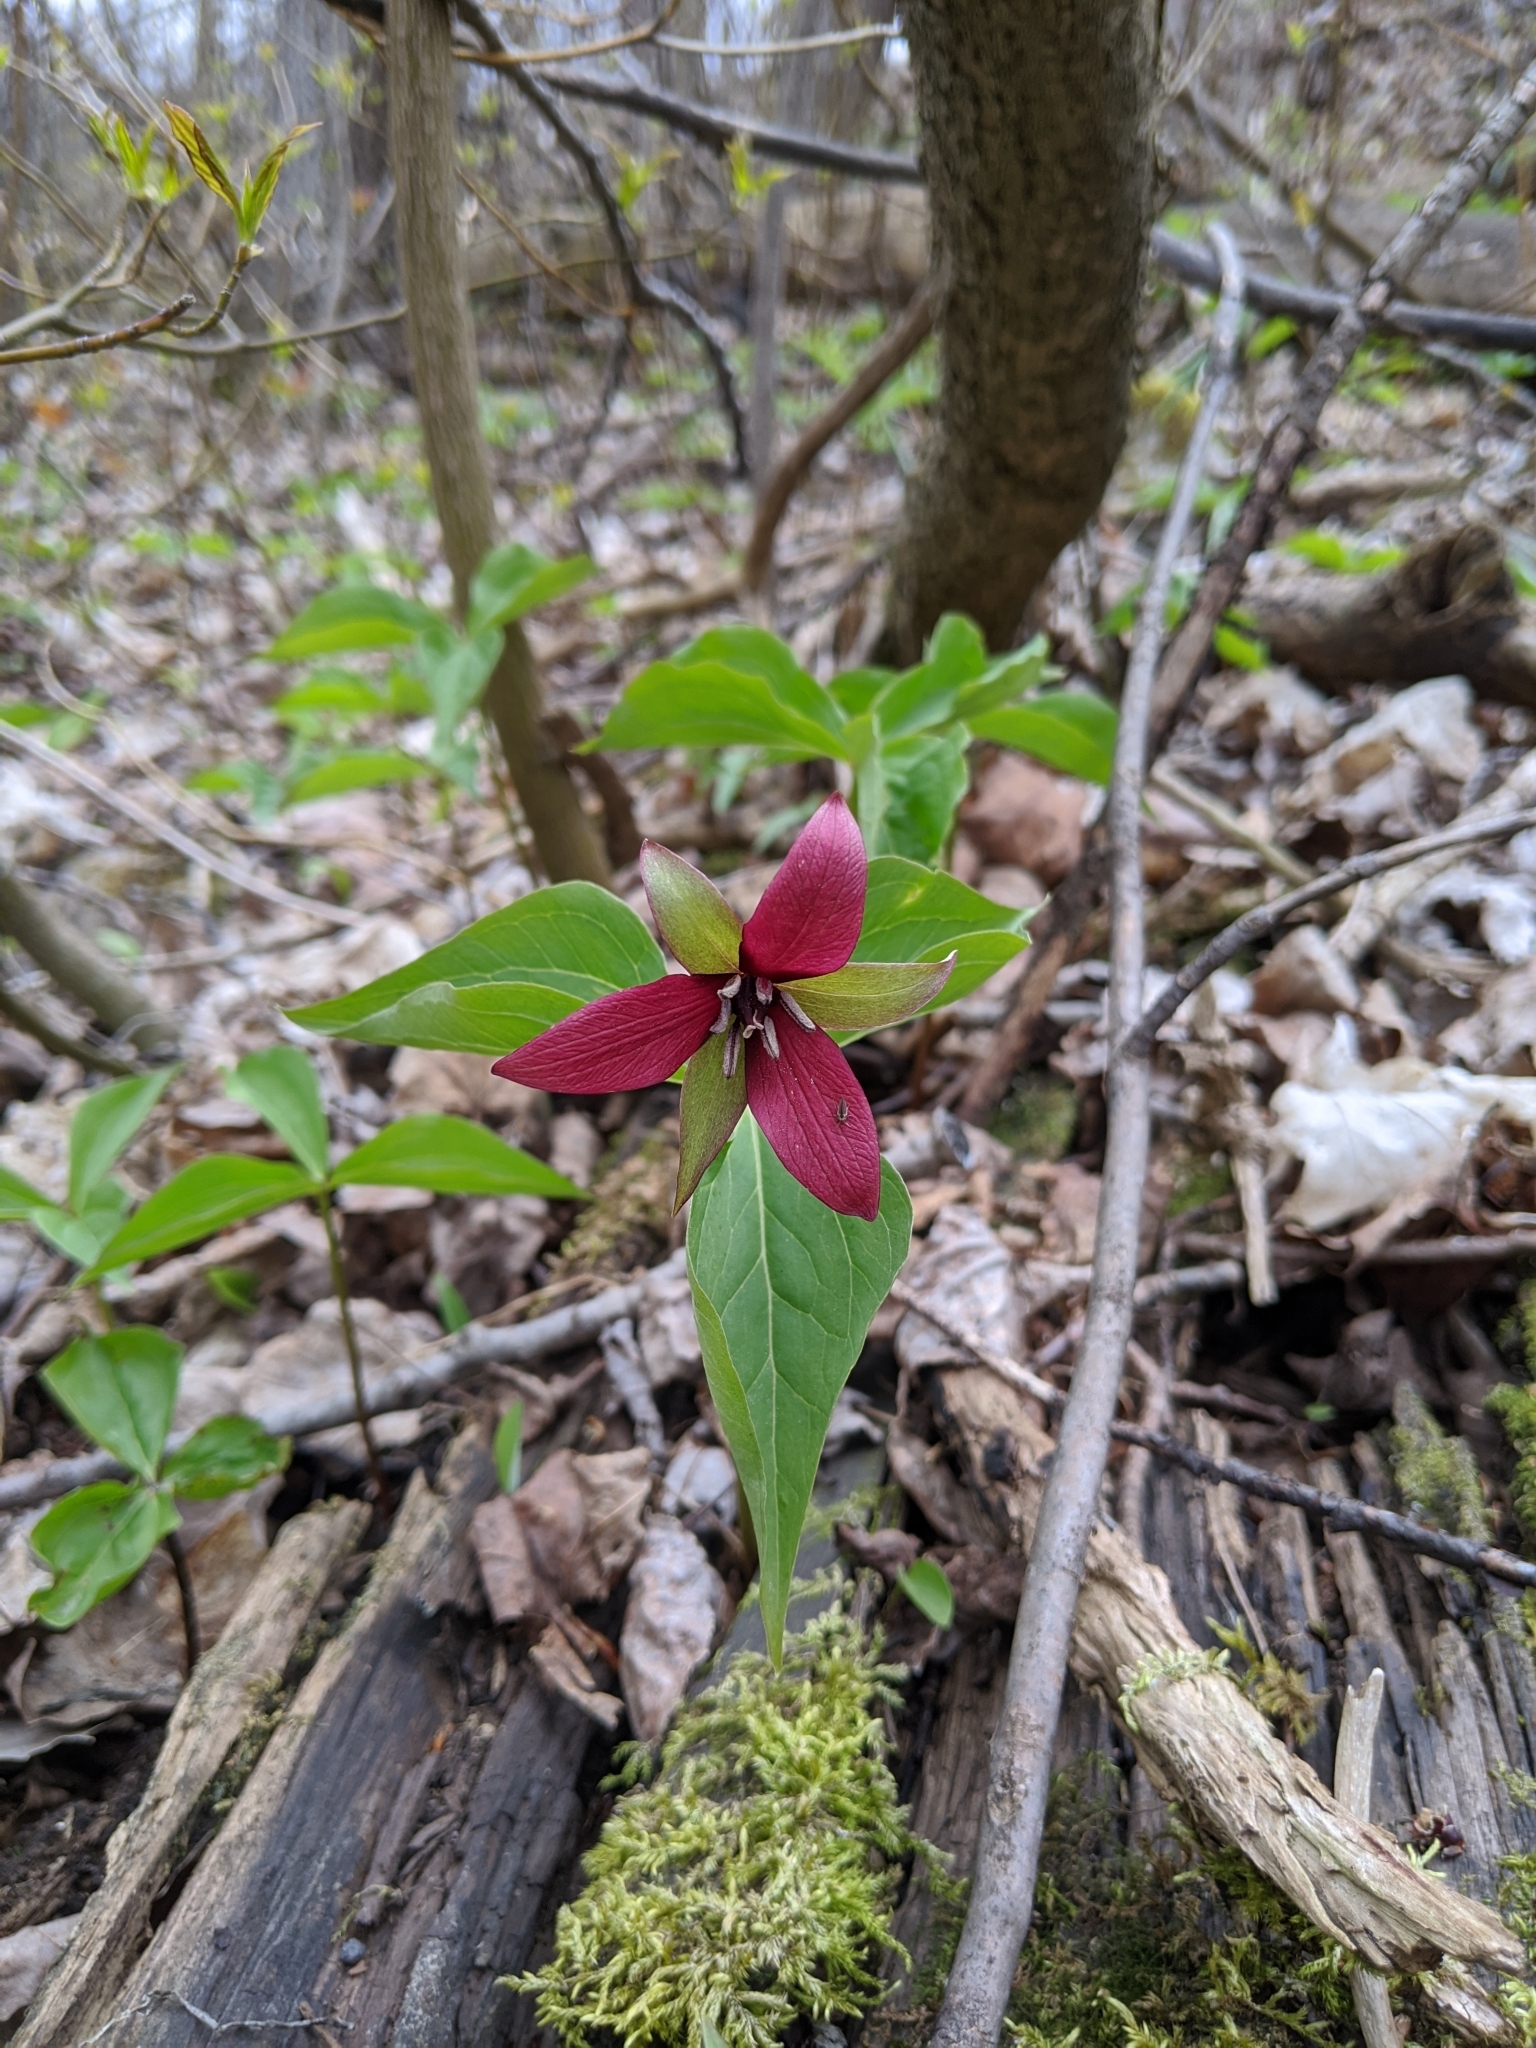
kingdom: Plantae
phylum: Tracheophyta
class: Liliopsida
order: Liliales
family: Melanthiaceae
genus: Trillium
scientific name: Trillium erectum
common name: Purple trillium
